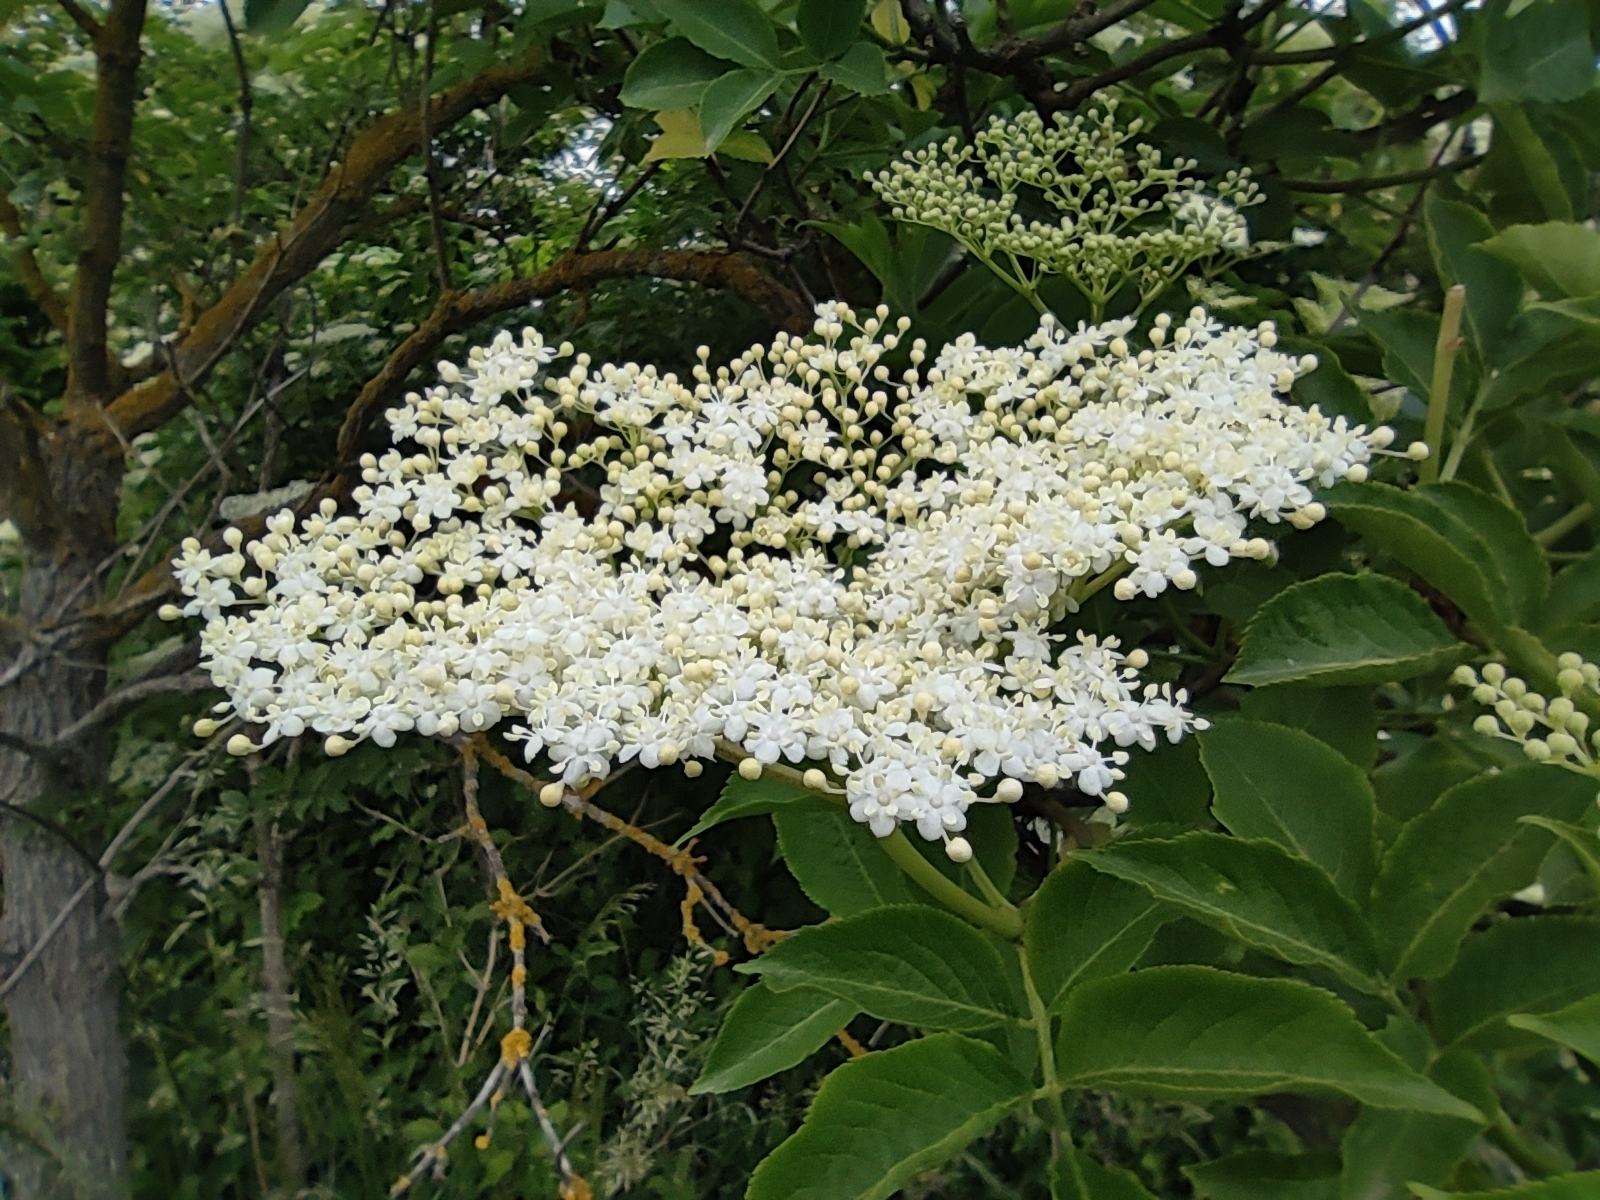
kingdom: Plantae
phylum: Tracheophyta
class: Magnoliopsida
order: Dipsacales
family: Viburnaceae
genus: Sambucus
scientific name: Sambucus nigra
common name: Elder
